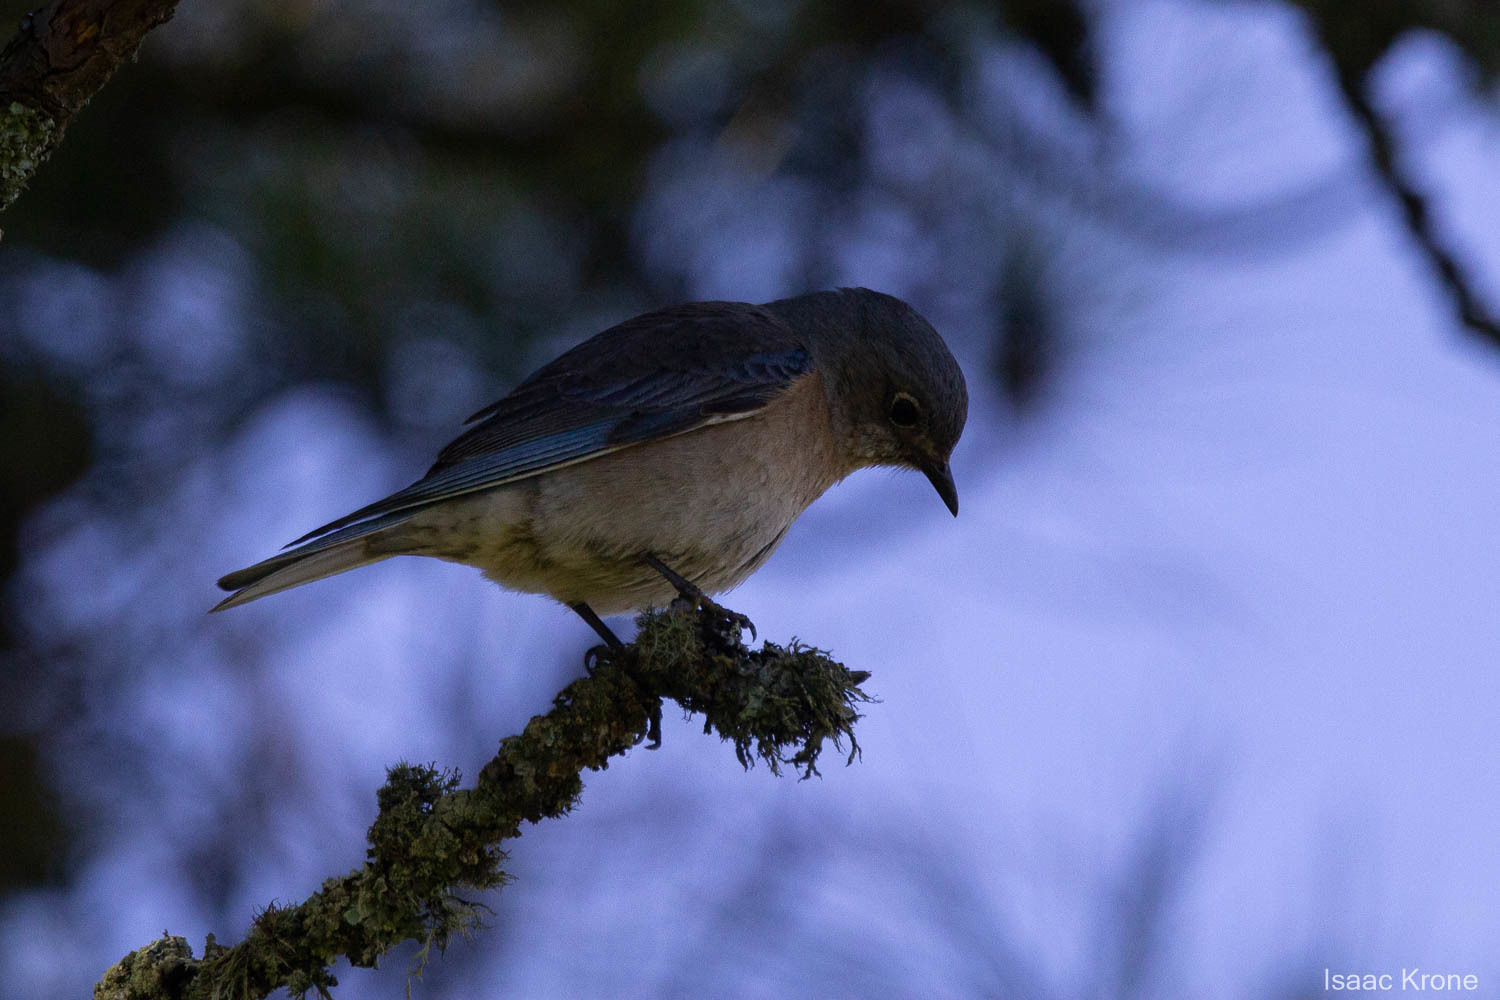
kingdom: Animalia
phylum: Chordata
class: Aves
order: Passeriformes
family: Turdidae
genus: Sialia
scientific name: Sialia mexicana
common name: Western bluebird
